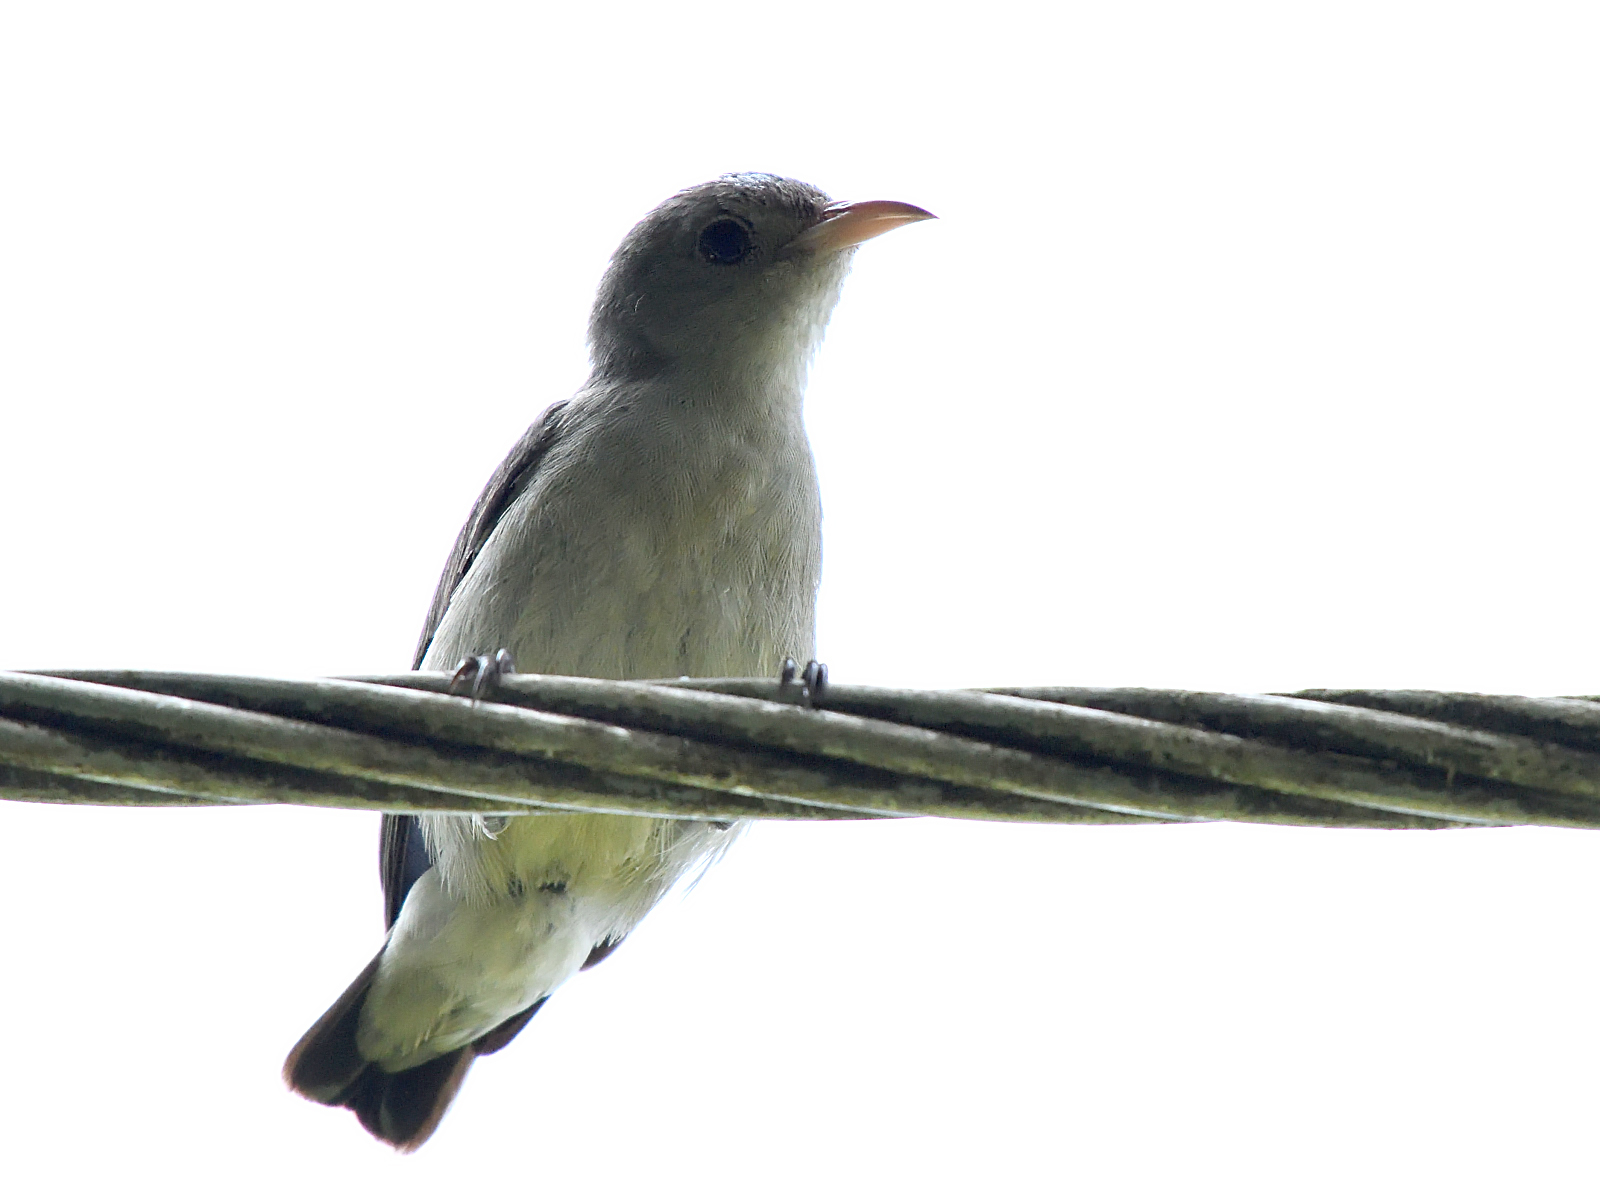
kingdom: Animalia
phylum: Chordata
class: Aves
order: Passeriformes
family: Dicaeidae
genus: Dicaeum
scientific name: Dicaeum erythrorhynchos
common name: Pale-billed flowerpecker
